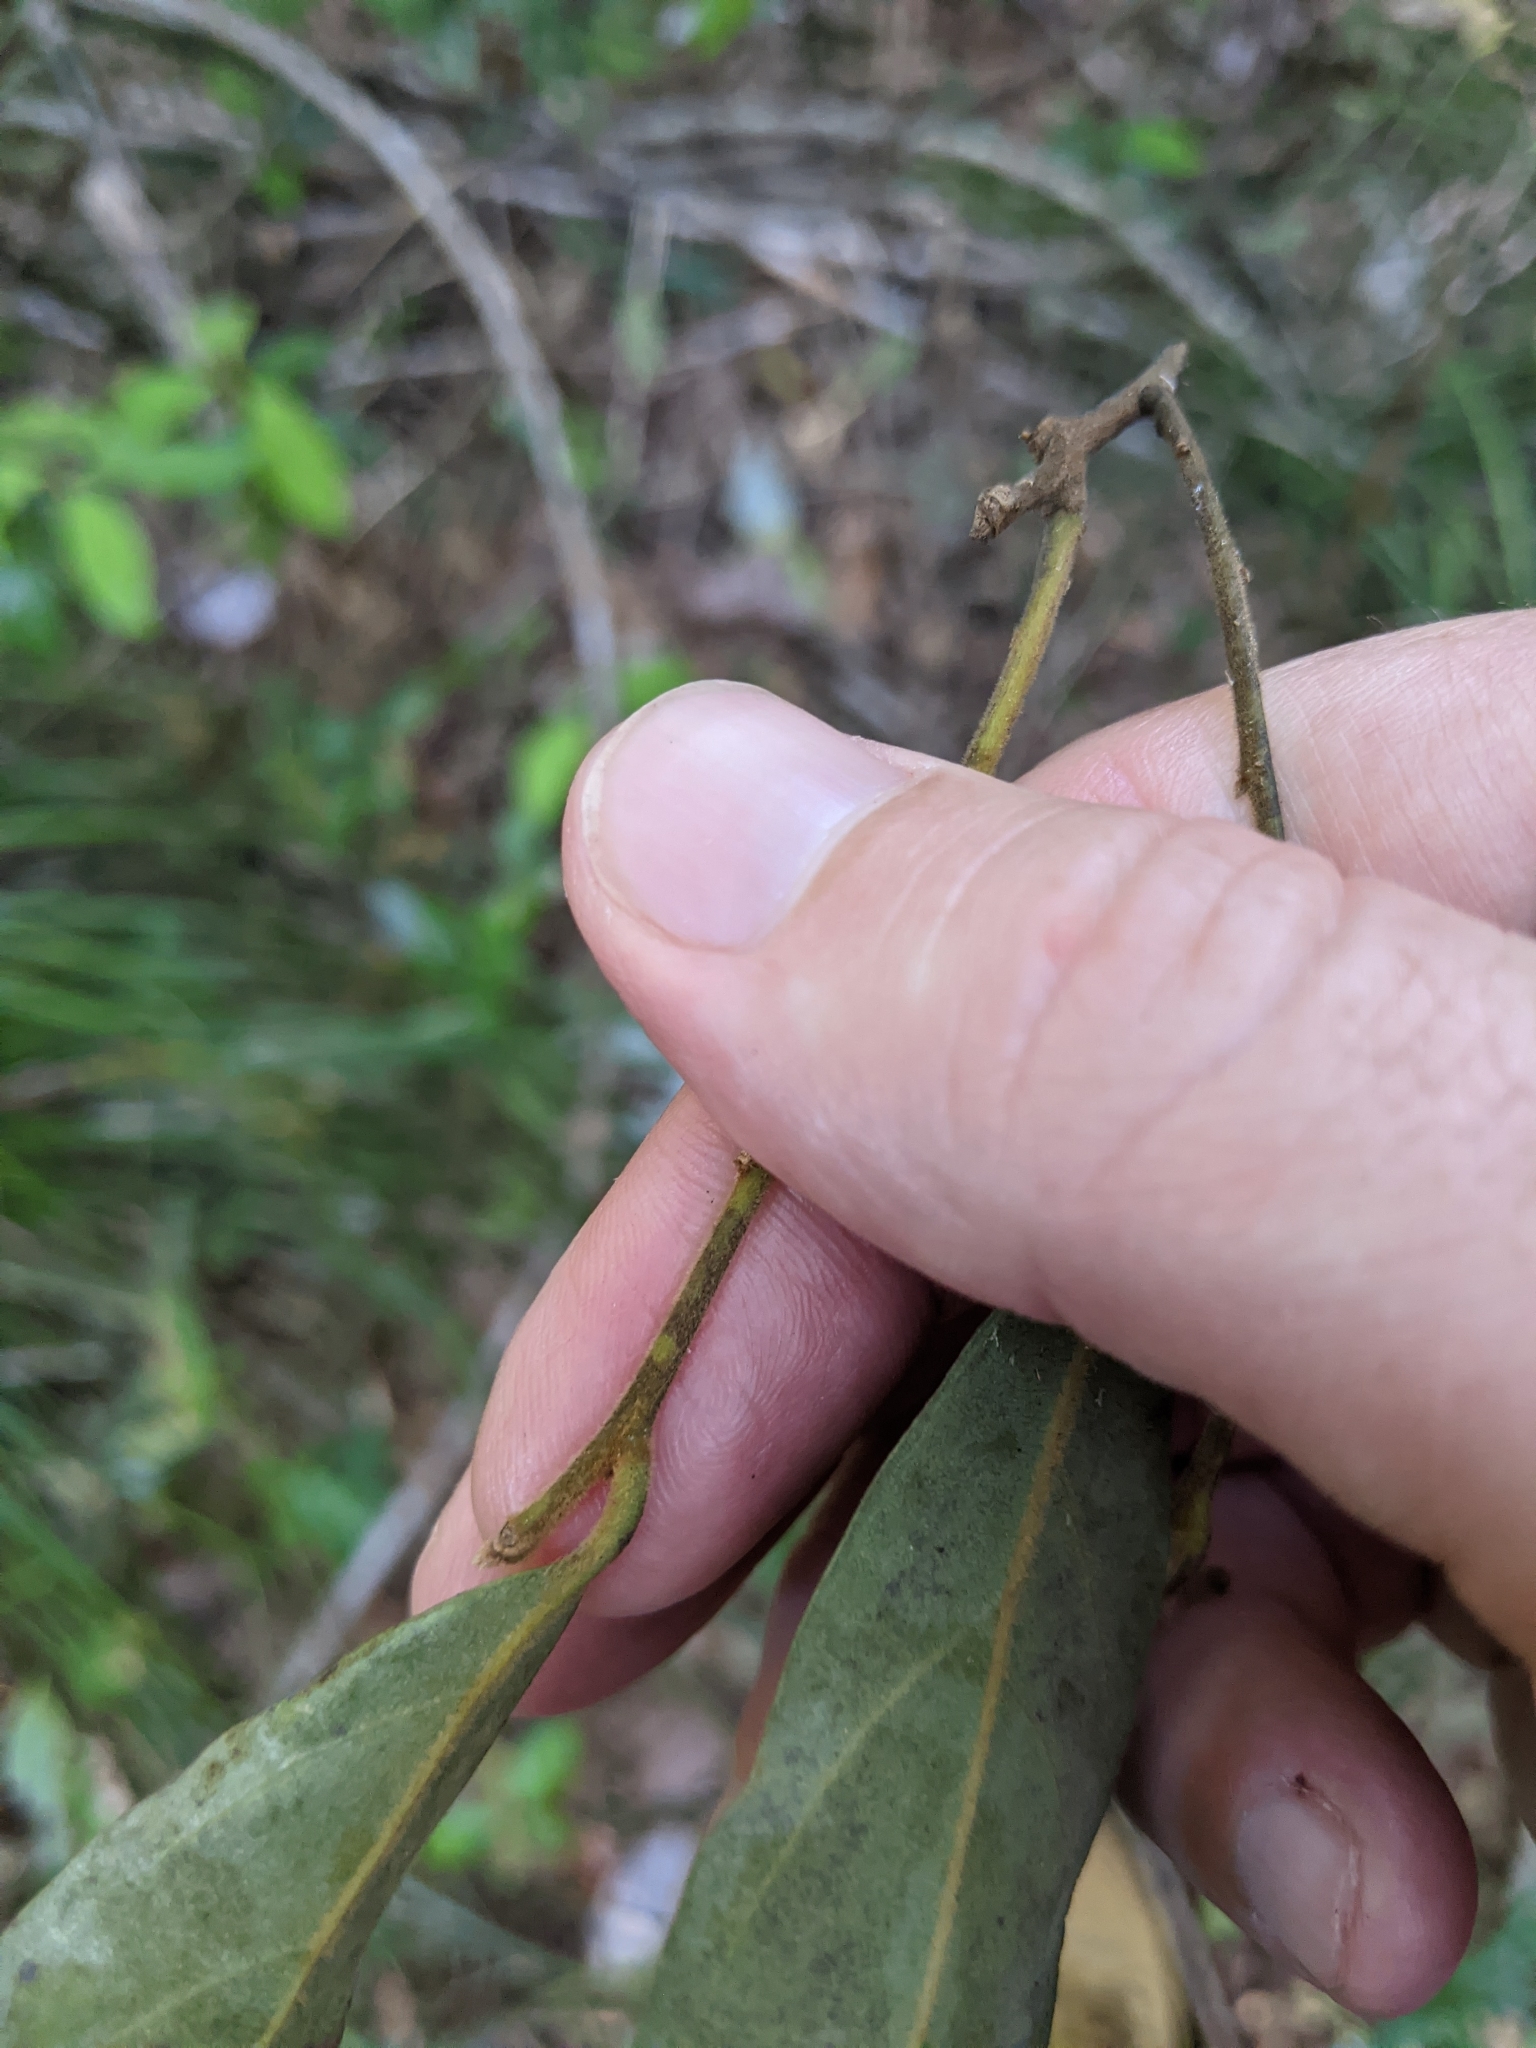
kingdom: Plantae
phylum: Tracheophyta
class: Magnoliopsida
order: Laurales
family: Lauraceae
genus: Cryptocarya
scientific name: Cryptocarya microneura
